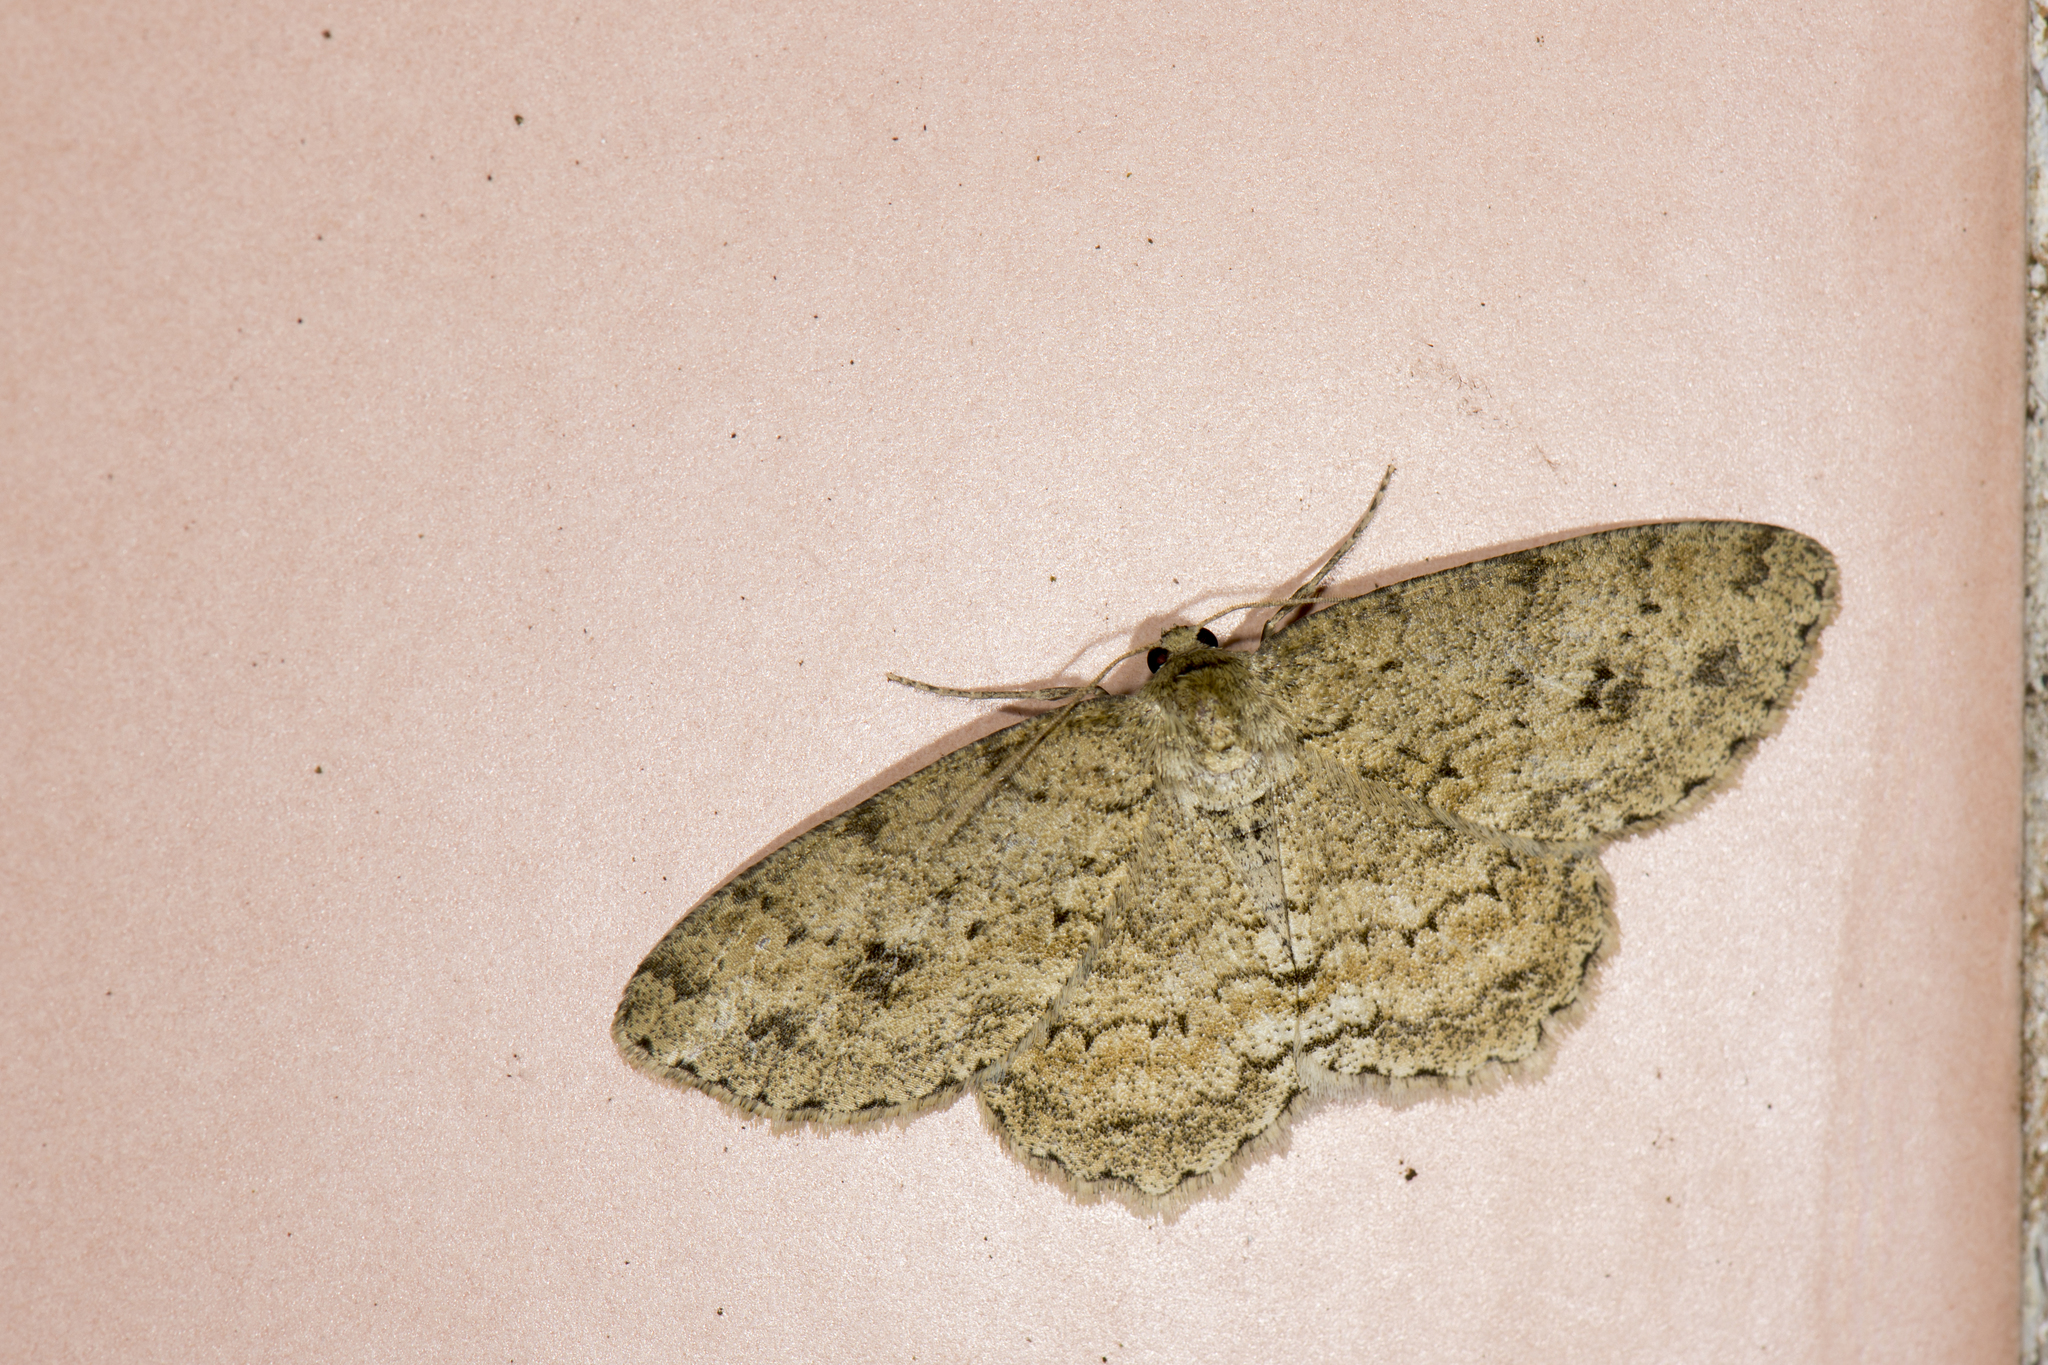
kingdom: Animalia
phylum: Arthropoda
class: Insecta
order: Lepidoptera
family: Geometridae
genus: Ectropis
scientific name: Ectropis bhurmitra
